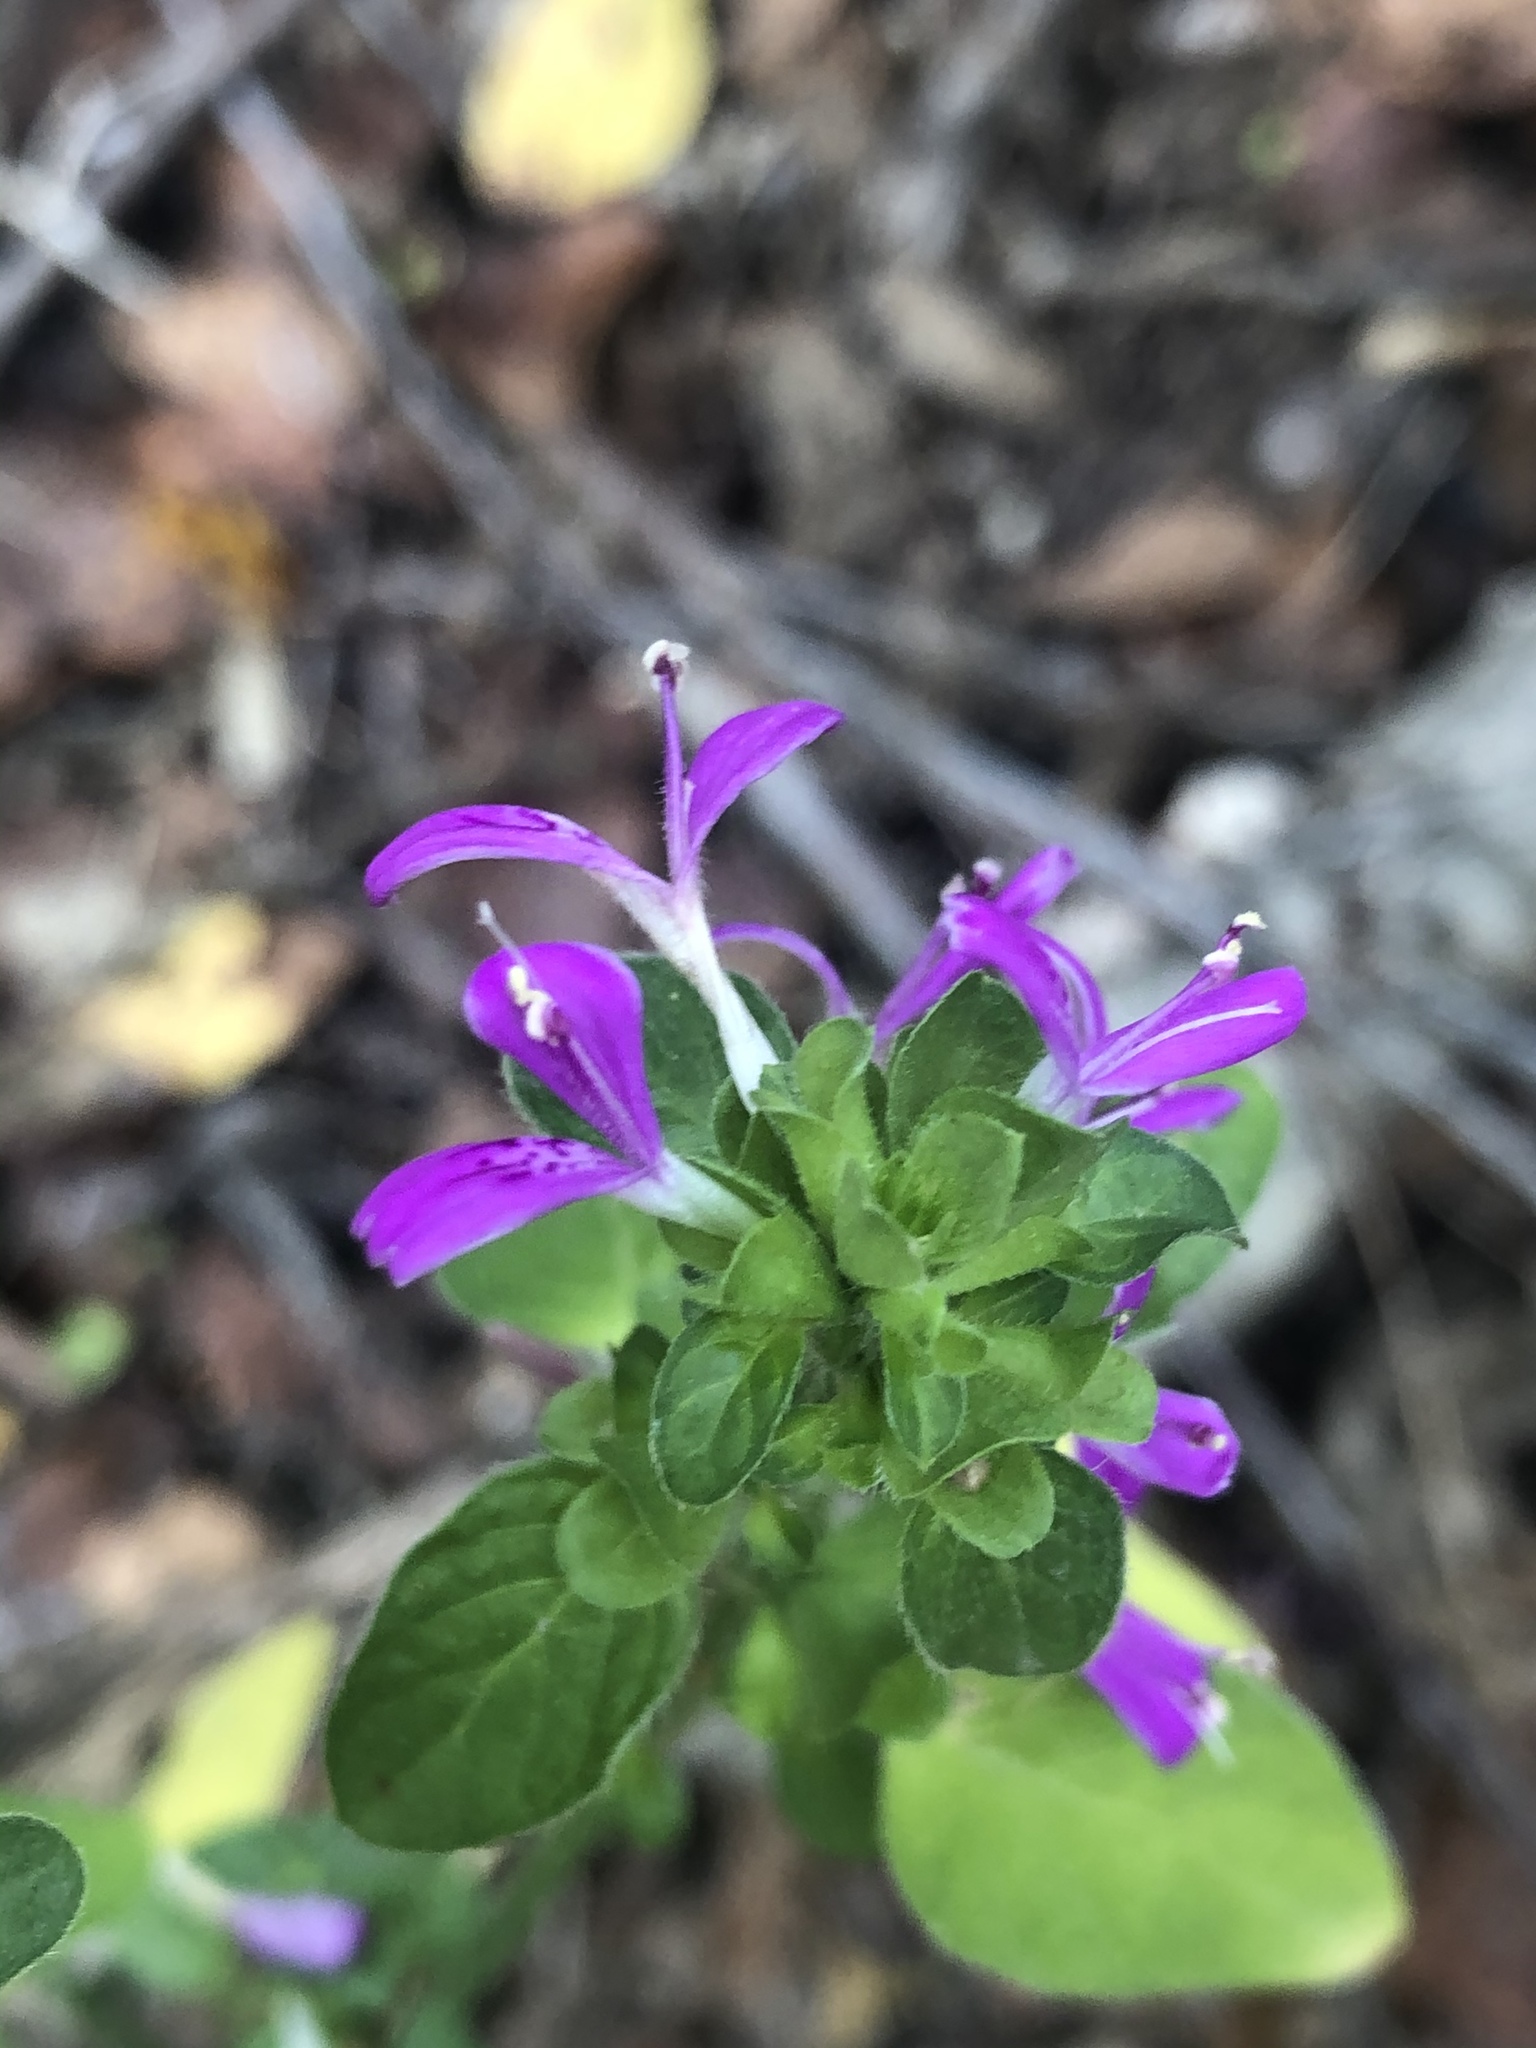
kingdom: Plantae
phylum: Tracheophyta
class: Magnoliopsida
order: Lamiales
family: Acanthaceae
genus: Dicliptera
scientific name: Dicliptera brachiata
